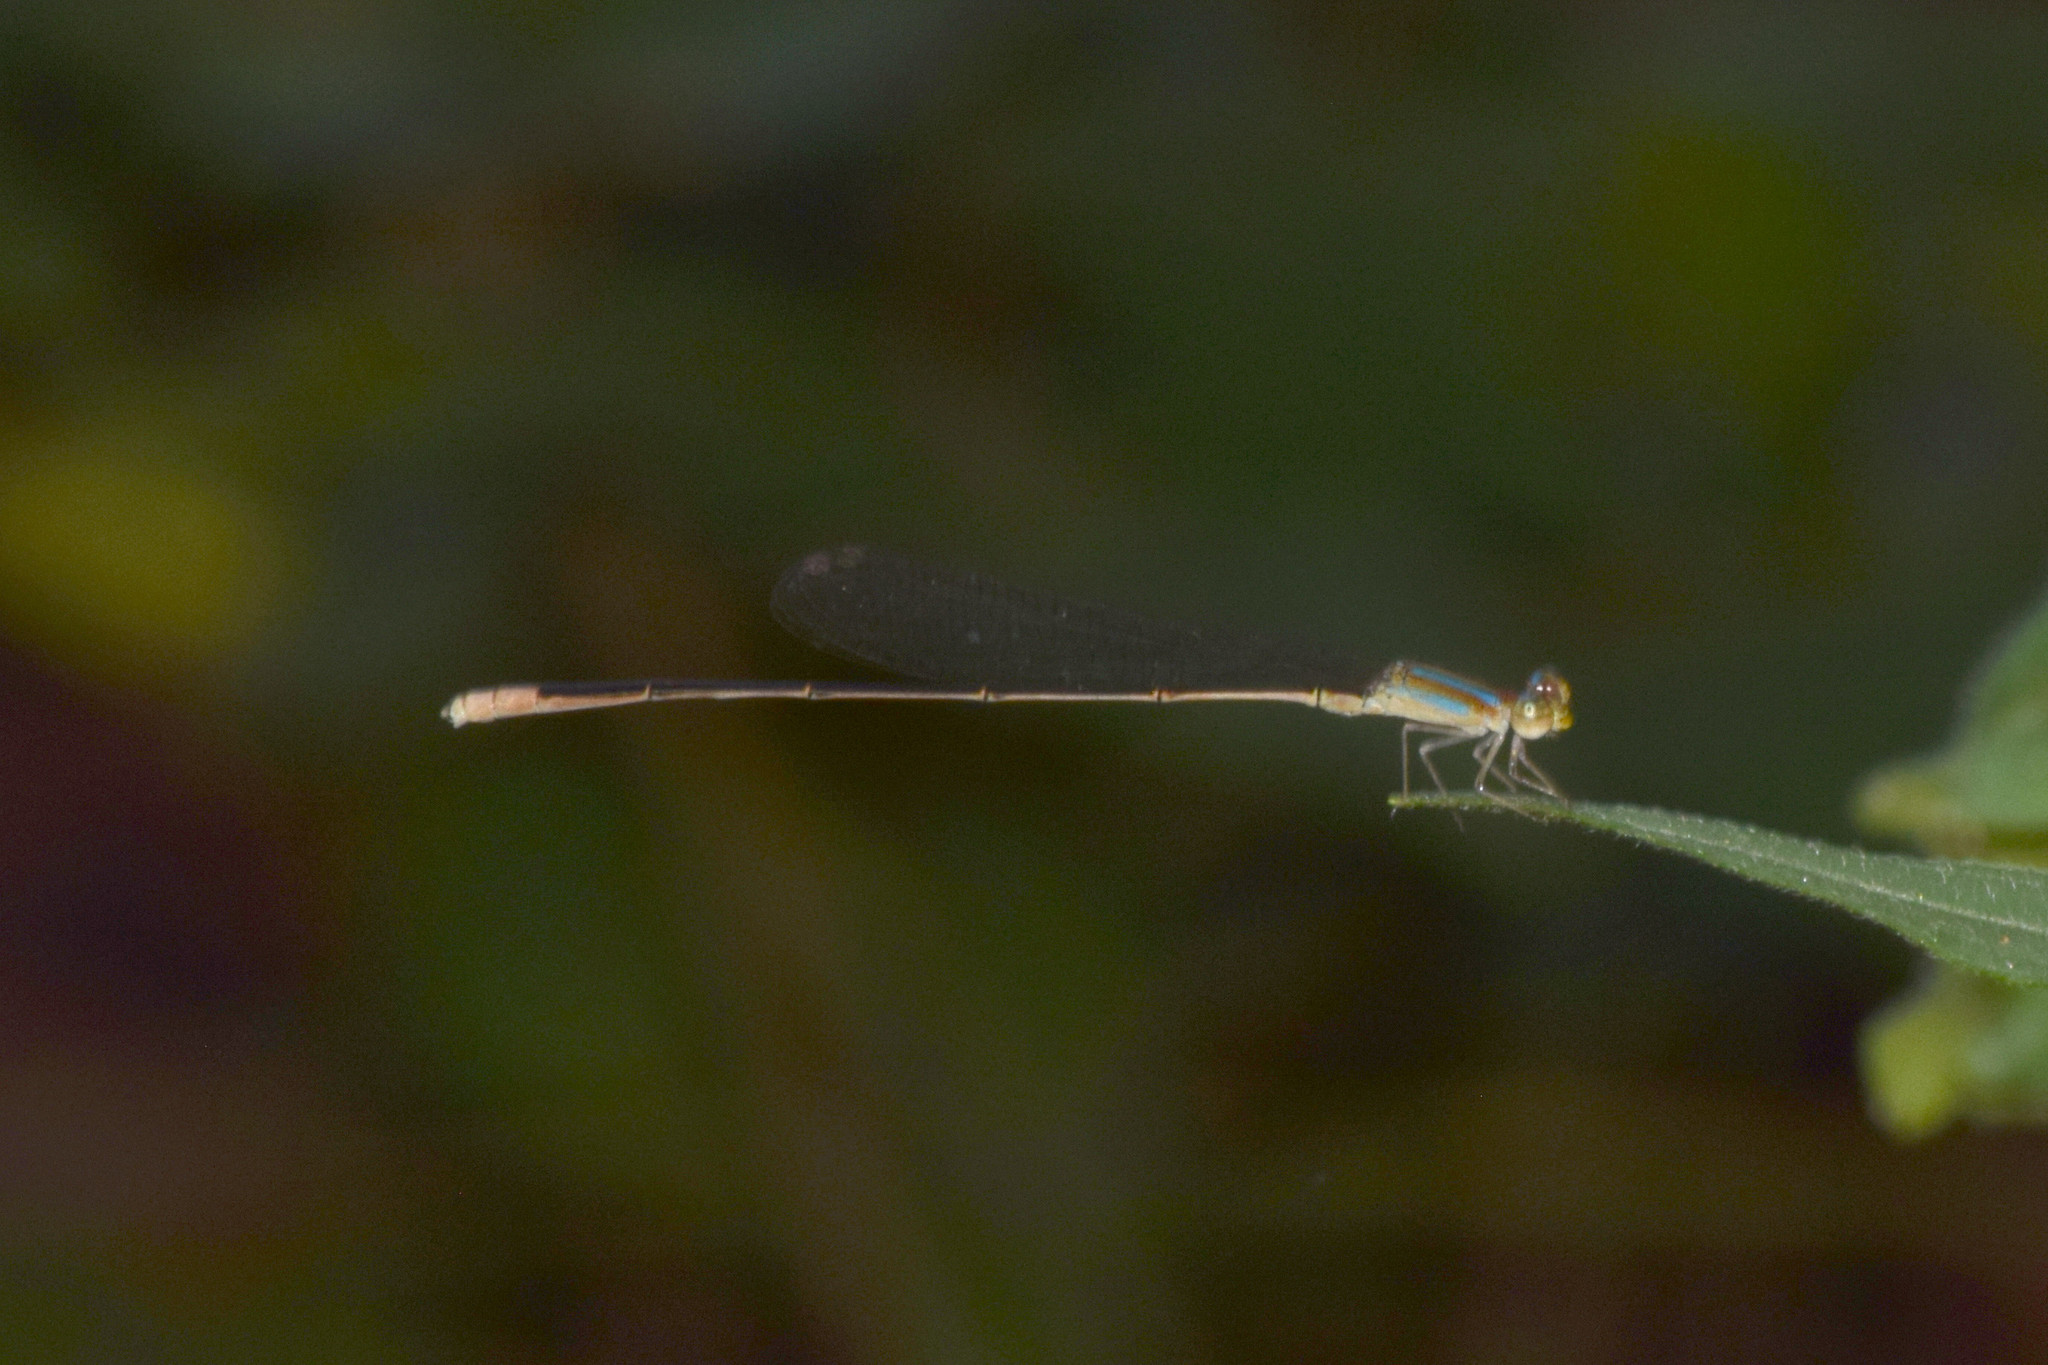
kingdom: Animalia
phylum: Arthropoda
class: Insecta
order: Odonata
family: Coenagrionidae
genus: Aciagrion
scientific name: Aciagrion pallidum
